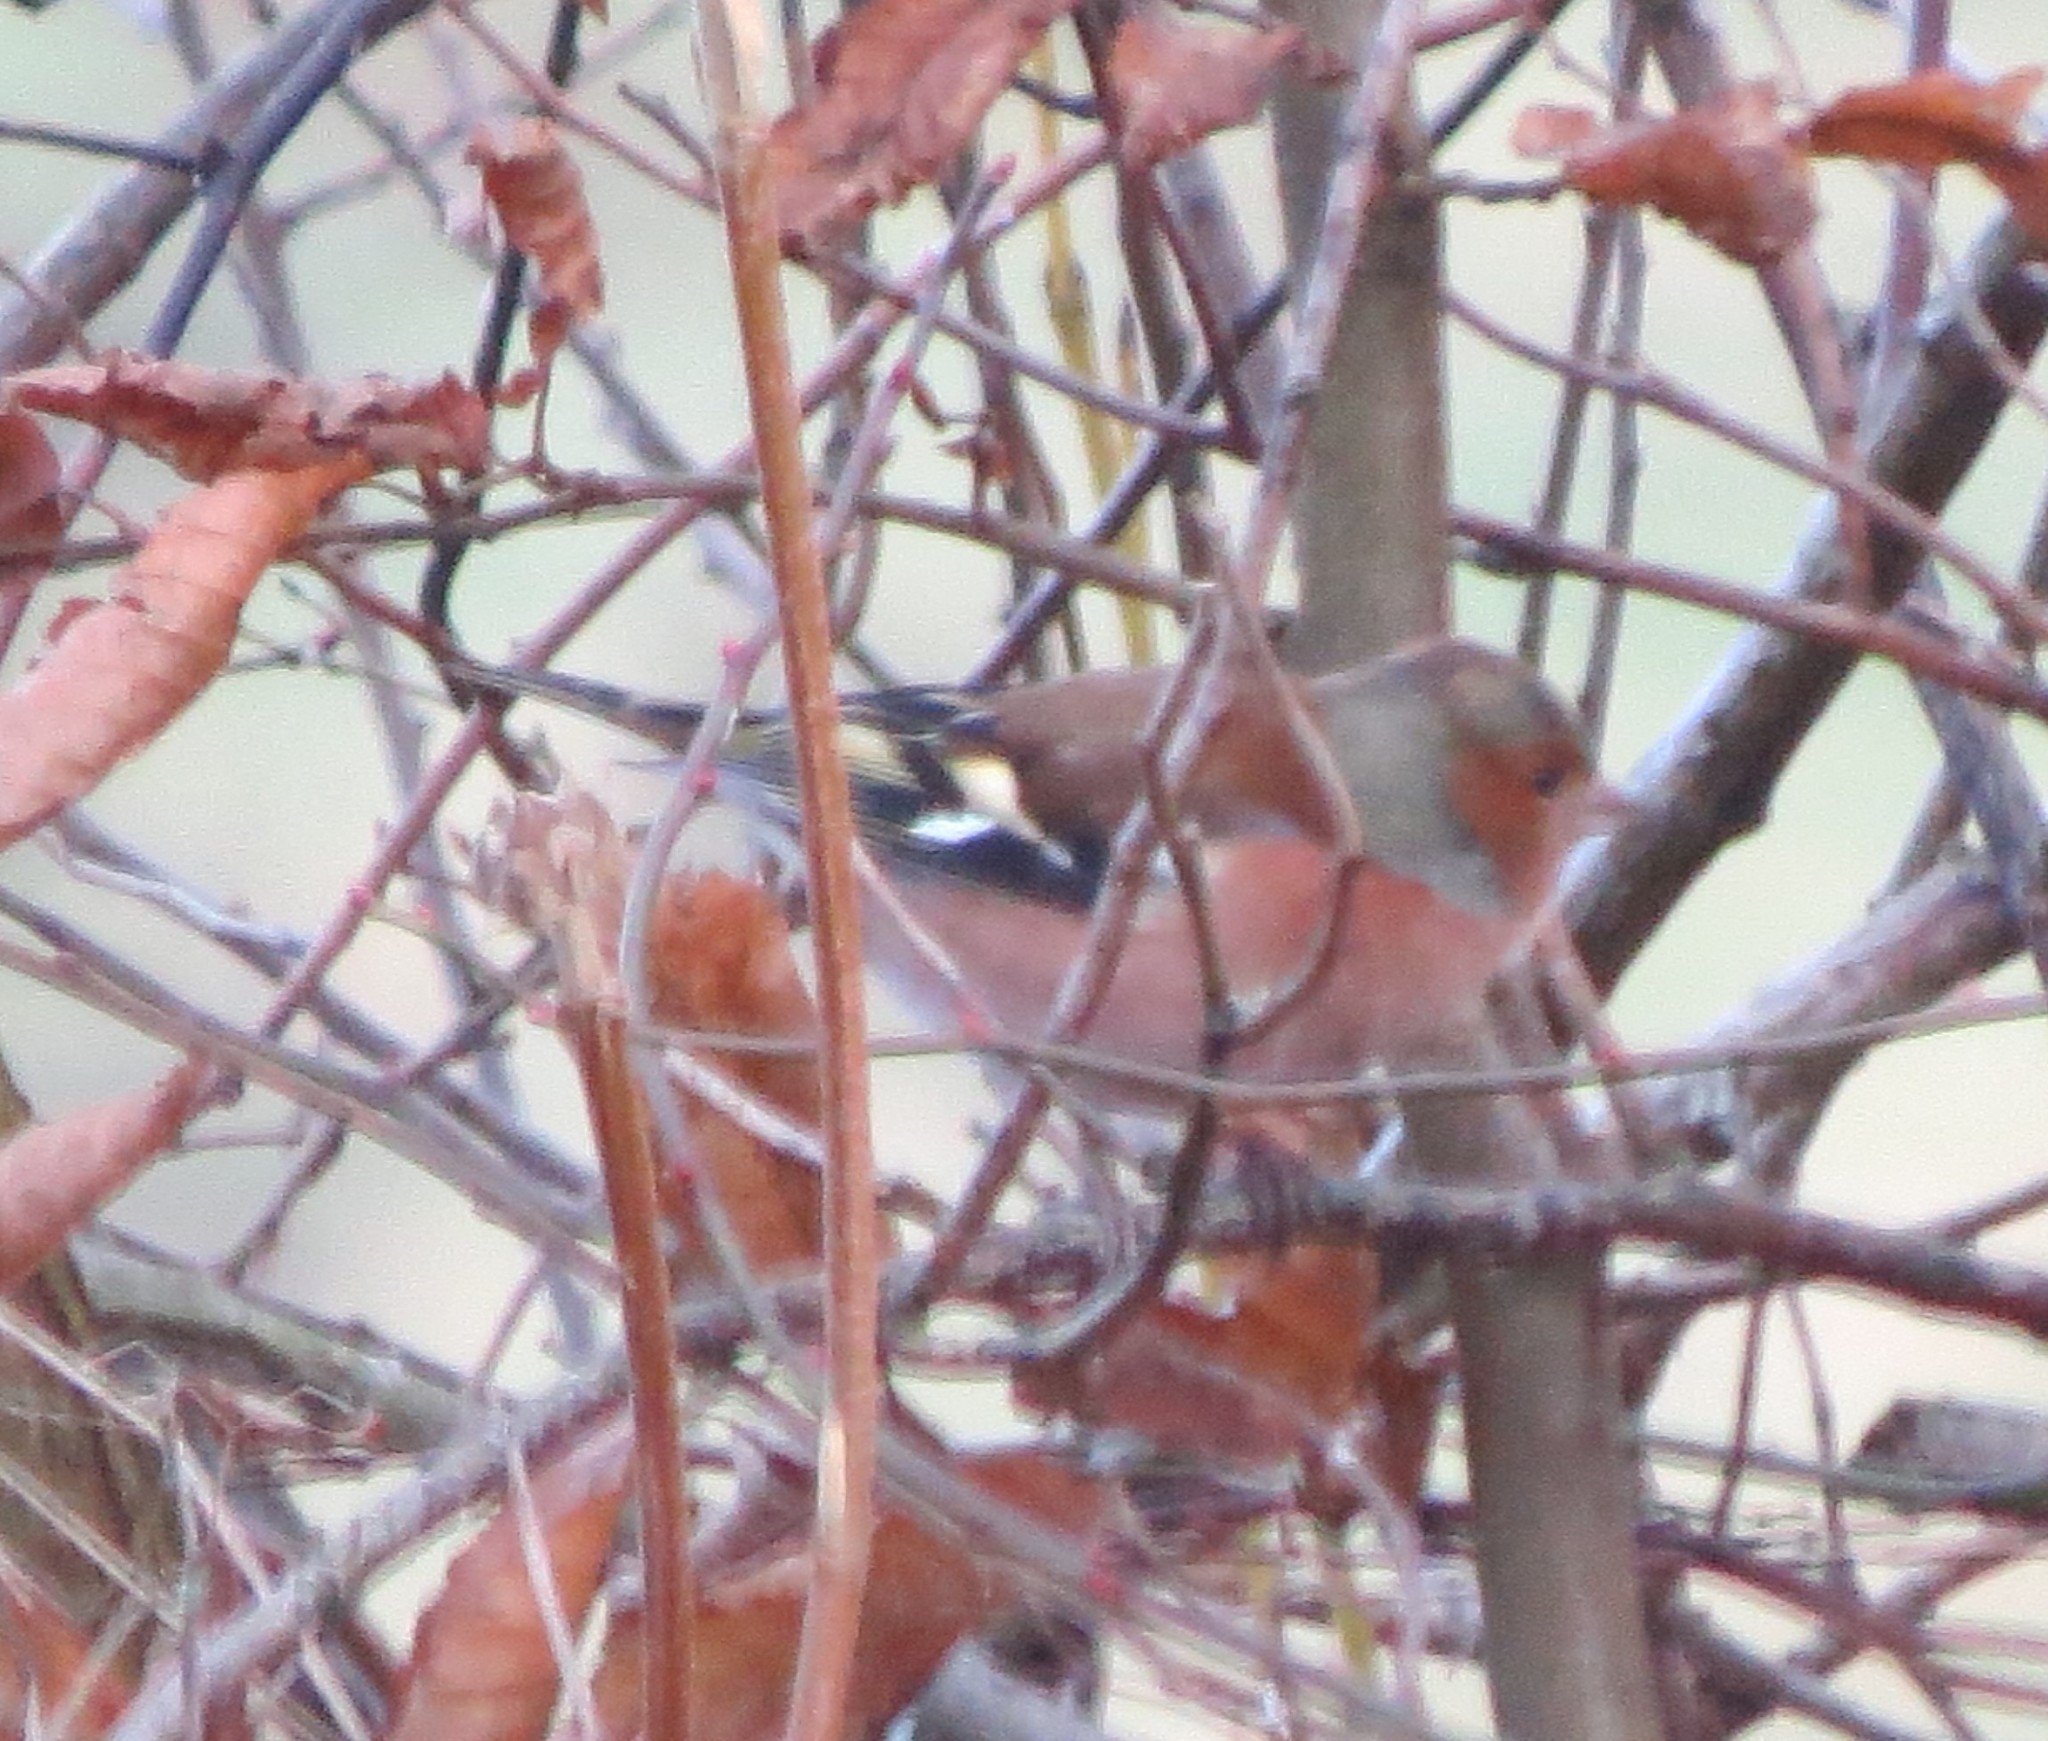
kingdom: Animalia
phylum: Chordata
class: Aves
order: Passeriformes
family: Fringillidae
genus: Fringilla
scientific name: Fringilla coelebs
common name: Common chaffinch
